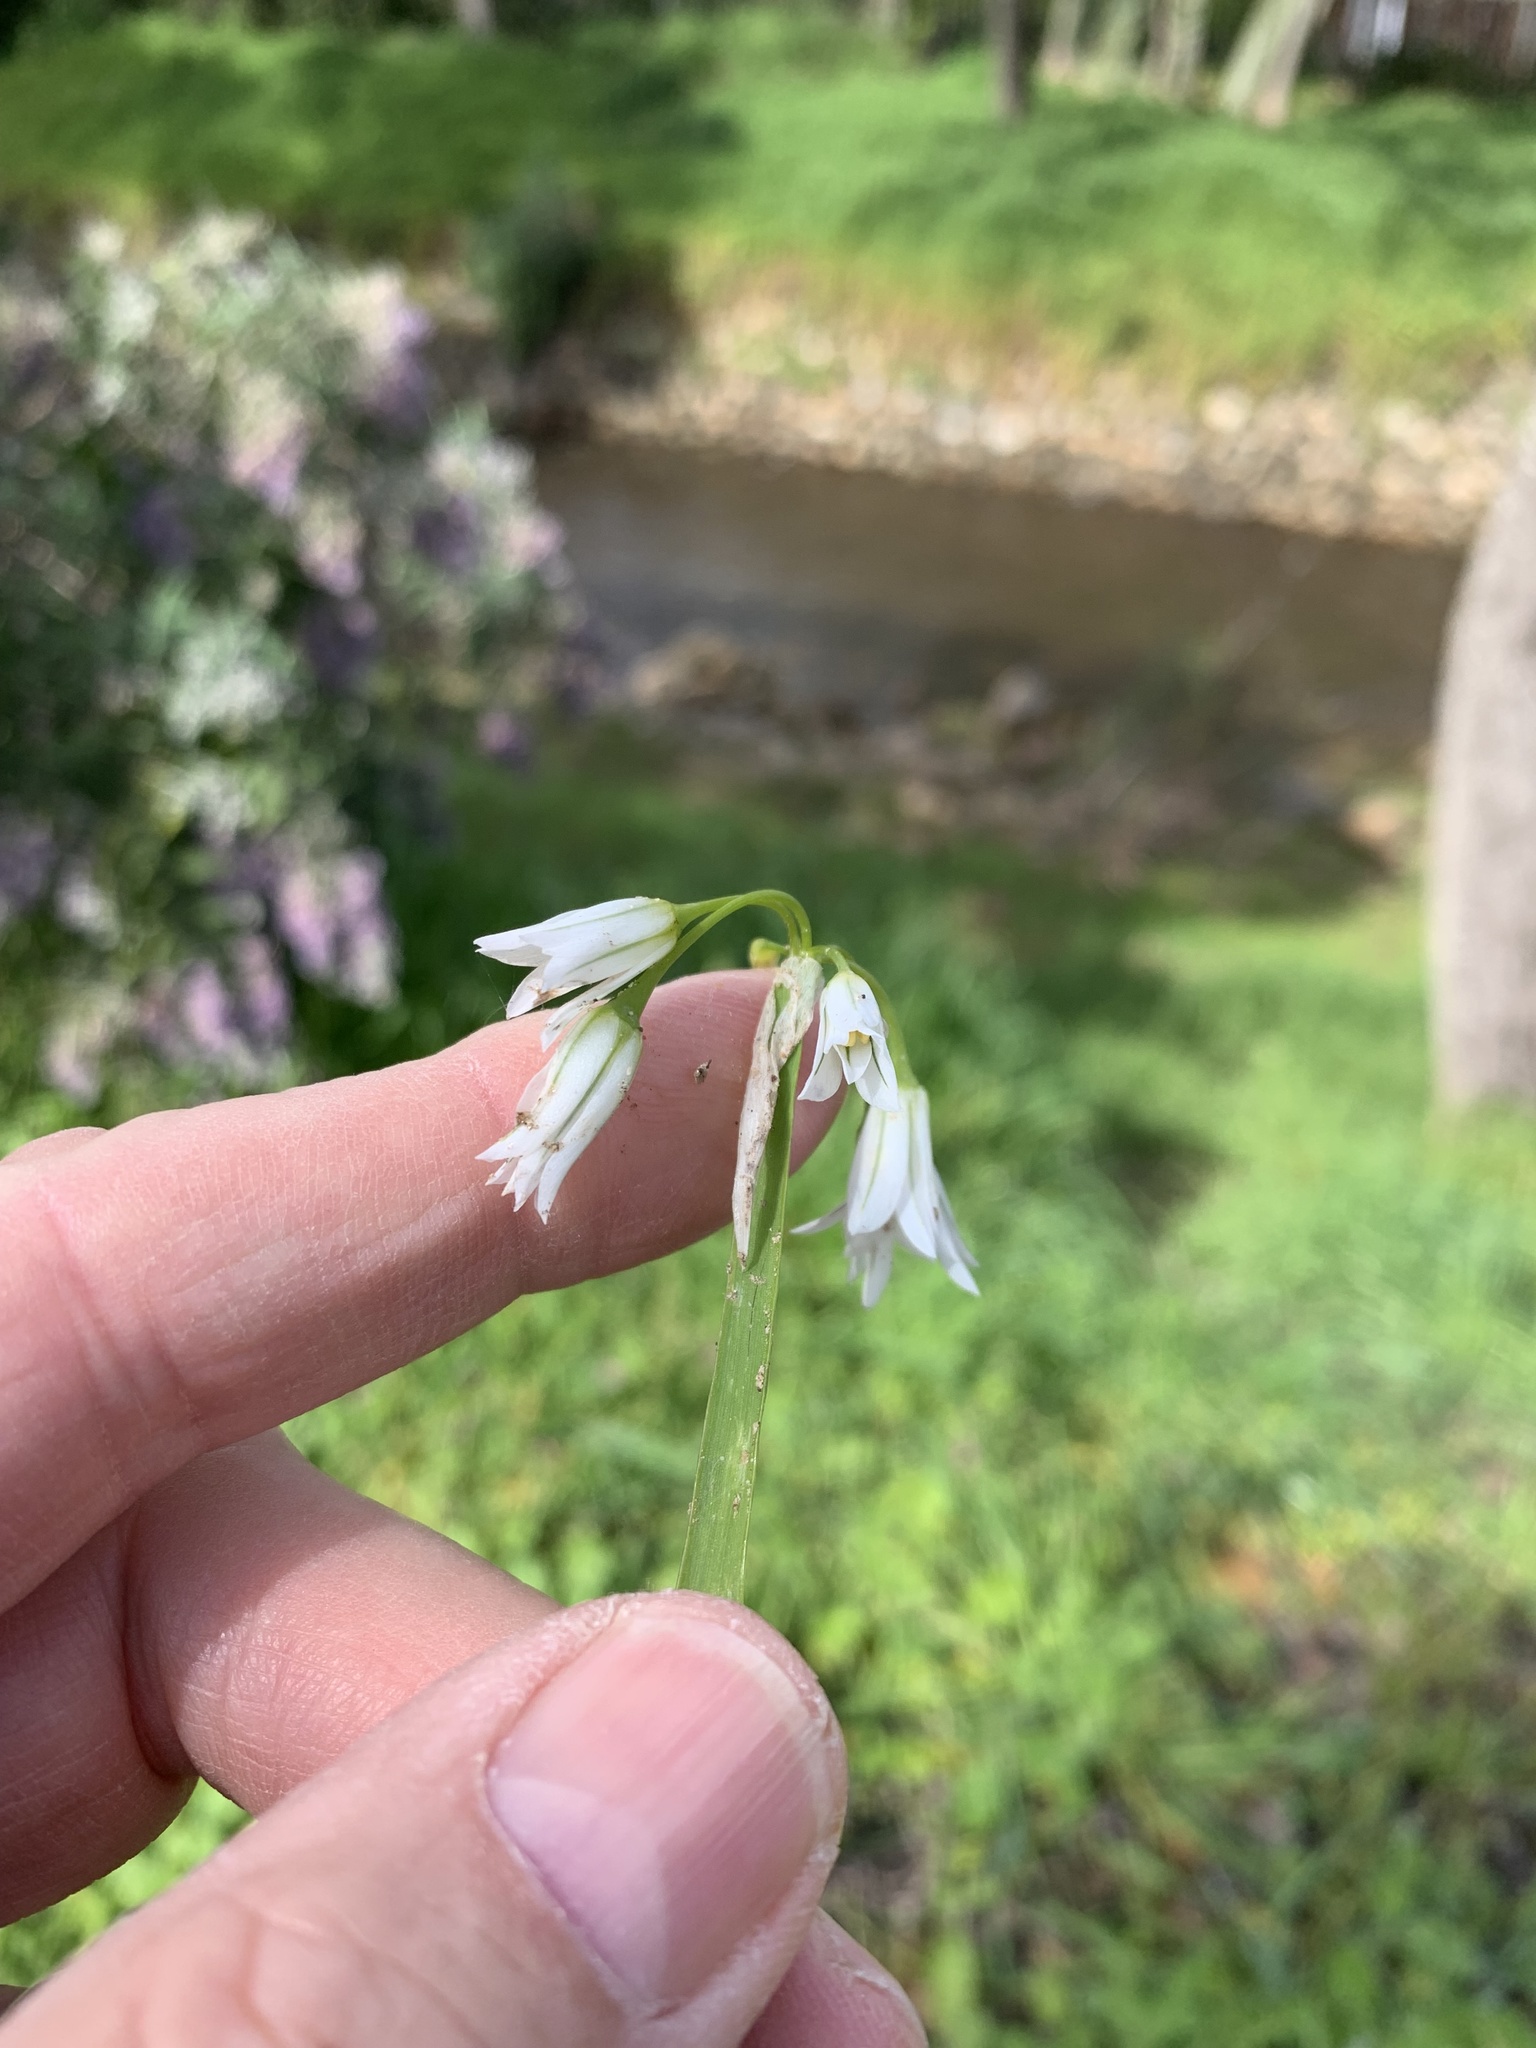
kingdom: Plantae
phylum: Tracheophyta
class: Liliopsida
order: Asparagales
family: Amaryllidaceae
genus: Allium
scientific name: Allium triquetrum
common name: Three-cornered garlic
